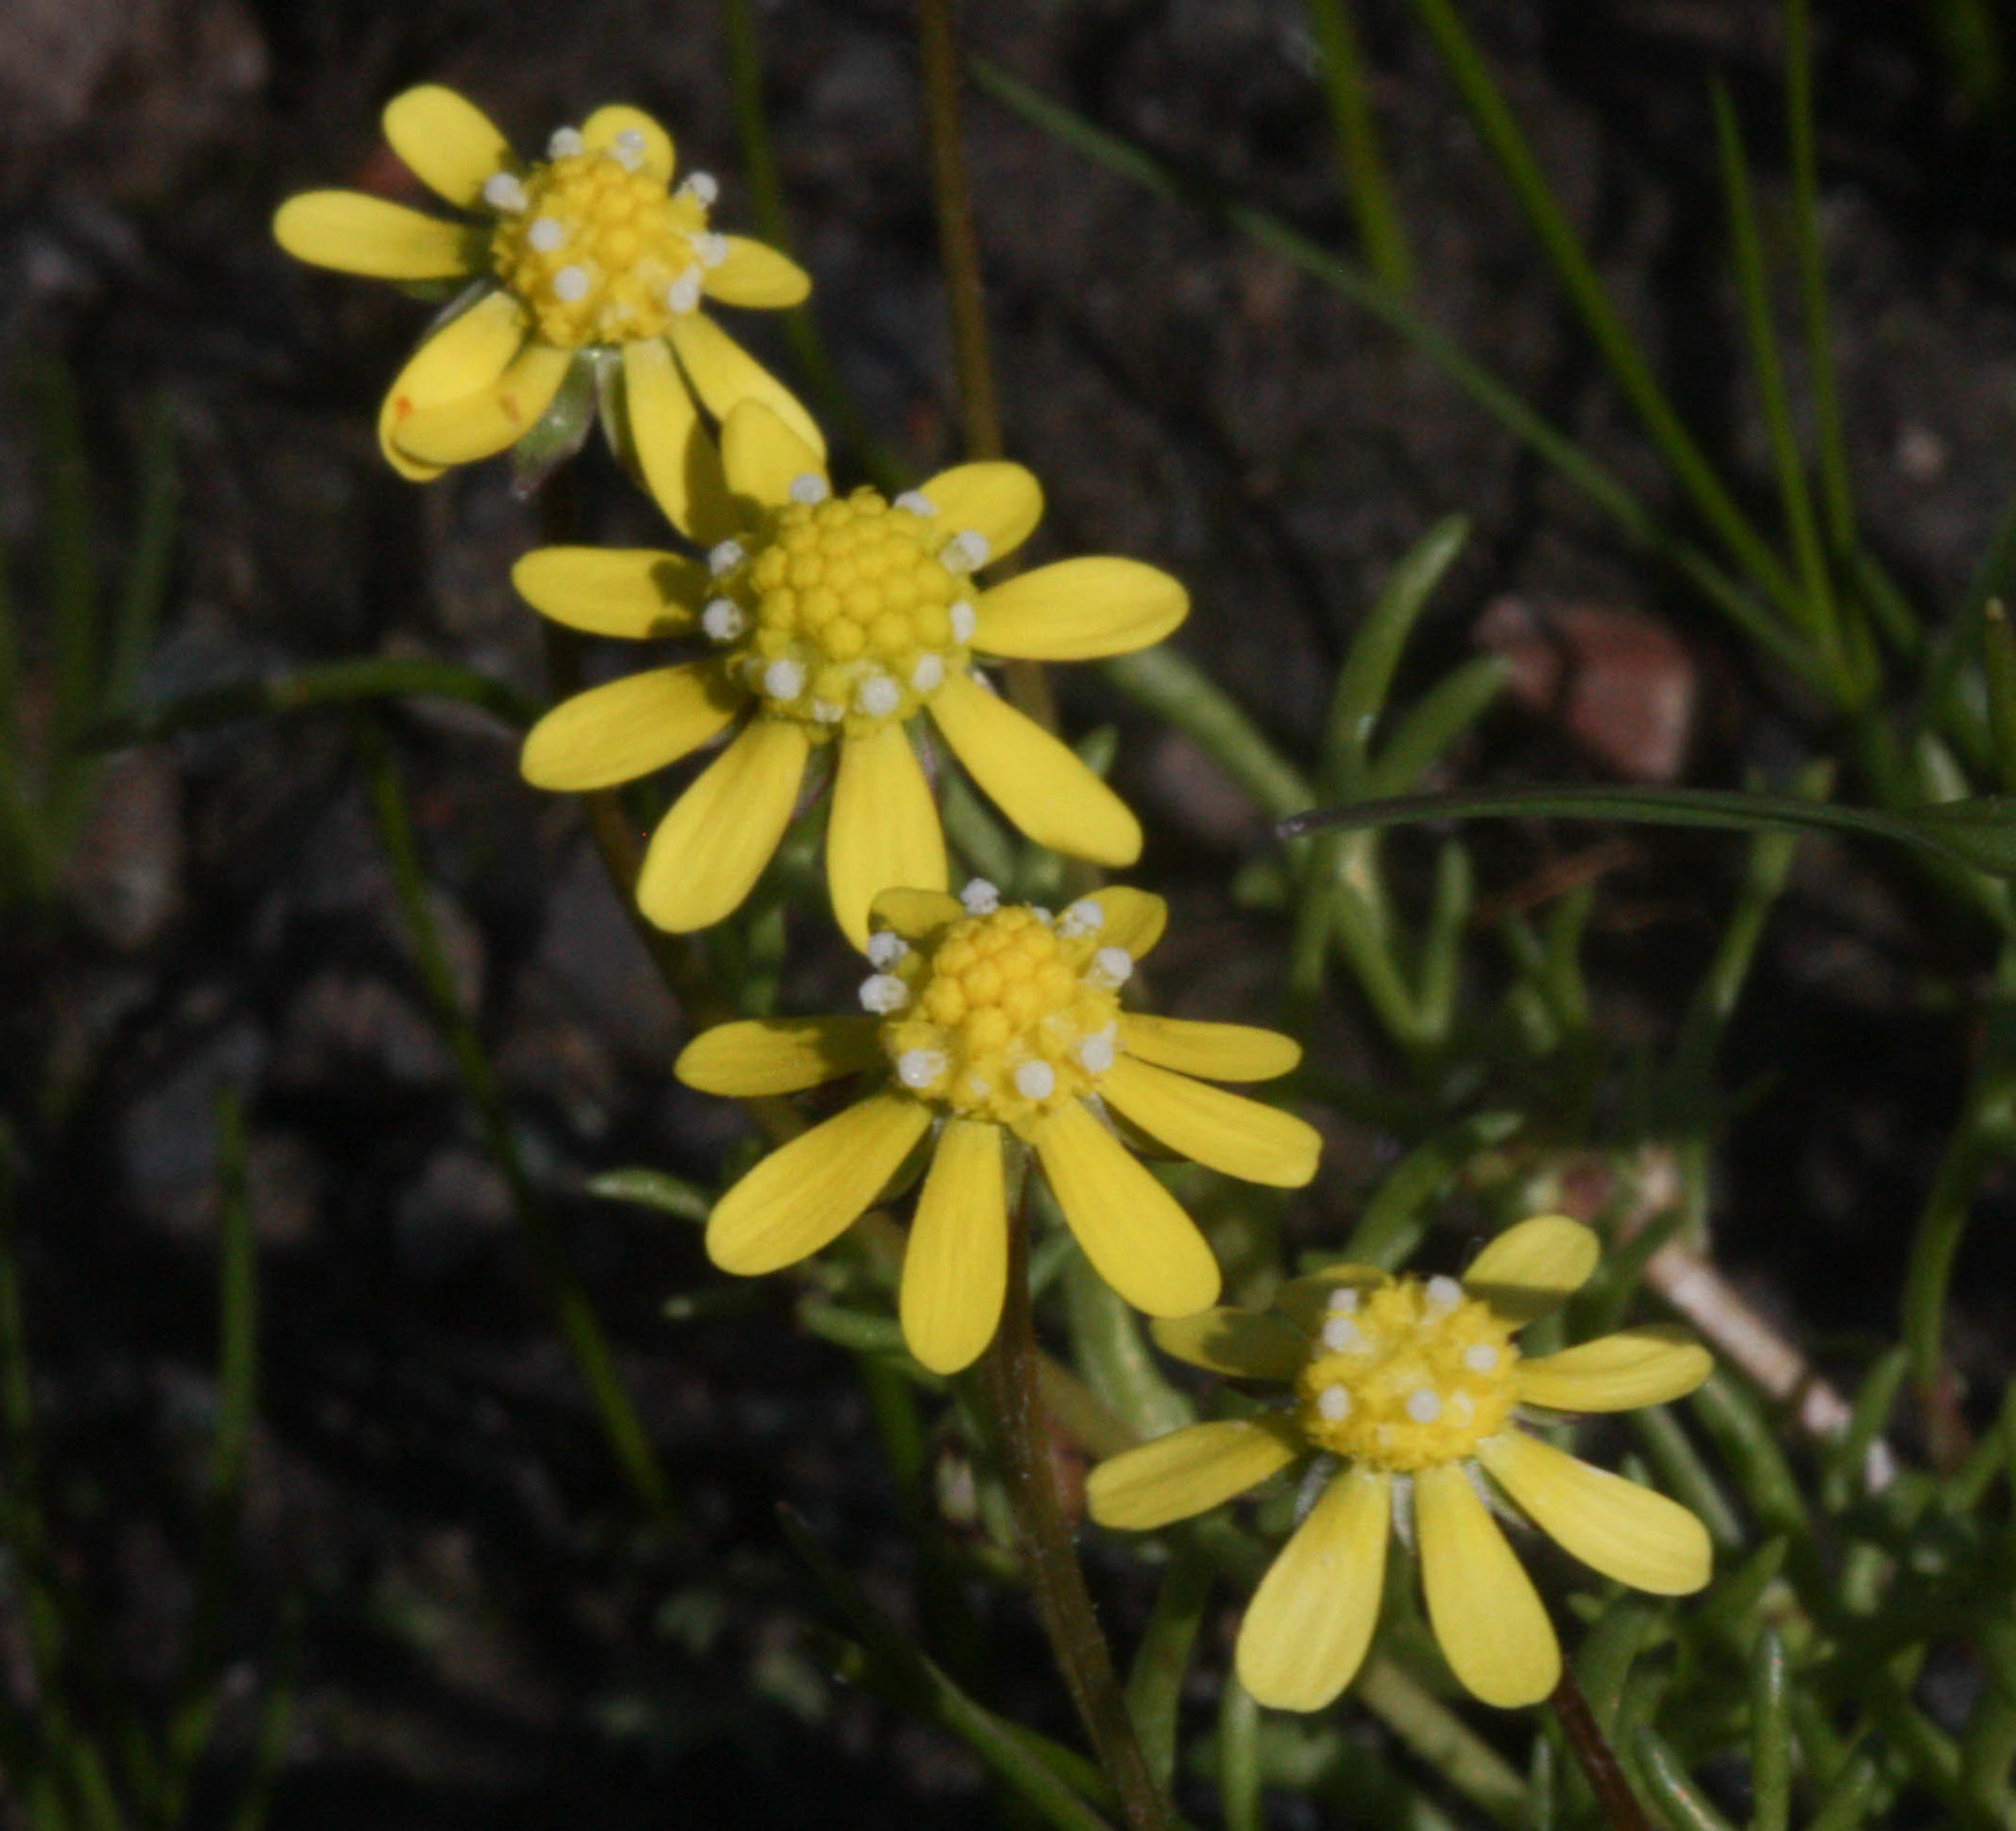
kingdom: Plantae
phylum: Tracheophyta
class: Magnoliopsida
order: Asterales
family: Asteraceae
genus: Blennosperma
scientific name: Blennosperma nanum
